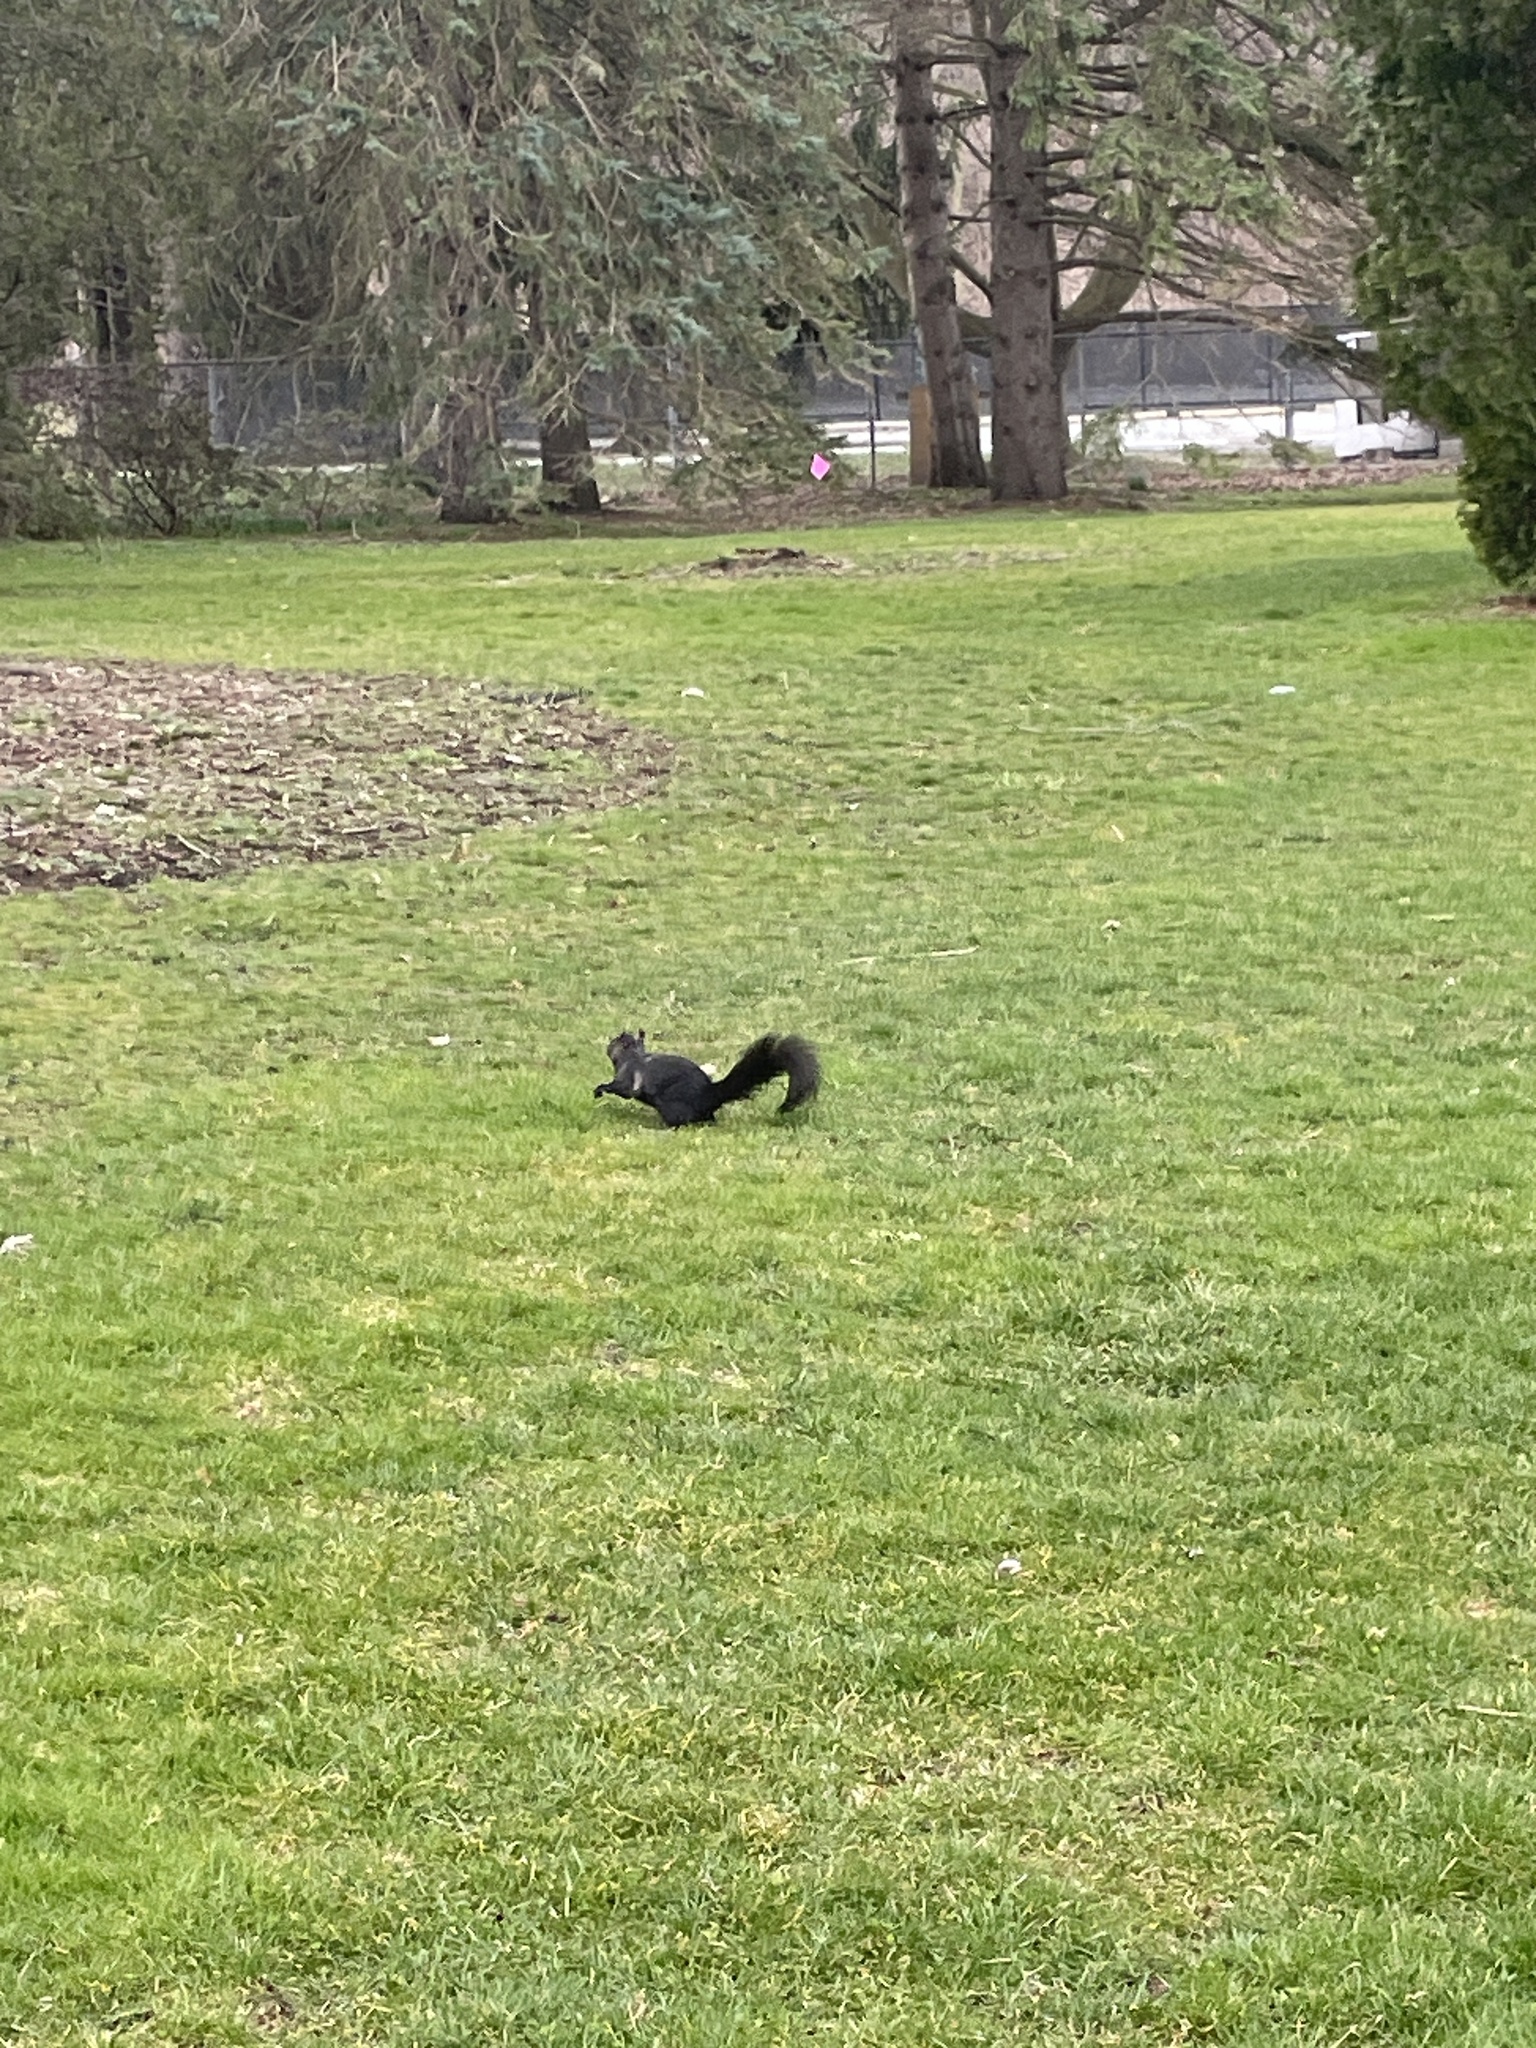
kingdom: Animalia
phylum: Chordata
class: Mammalia
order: Rodentia
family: Sciuridae
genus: Sciurus
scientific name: Sciurus carolinensis
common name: Eastern gray squirrel
